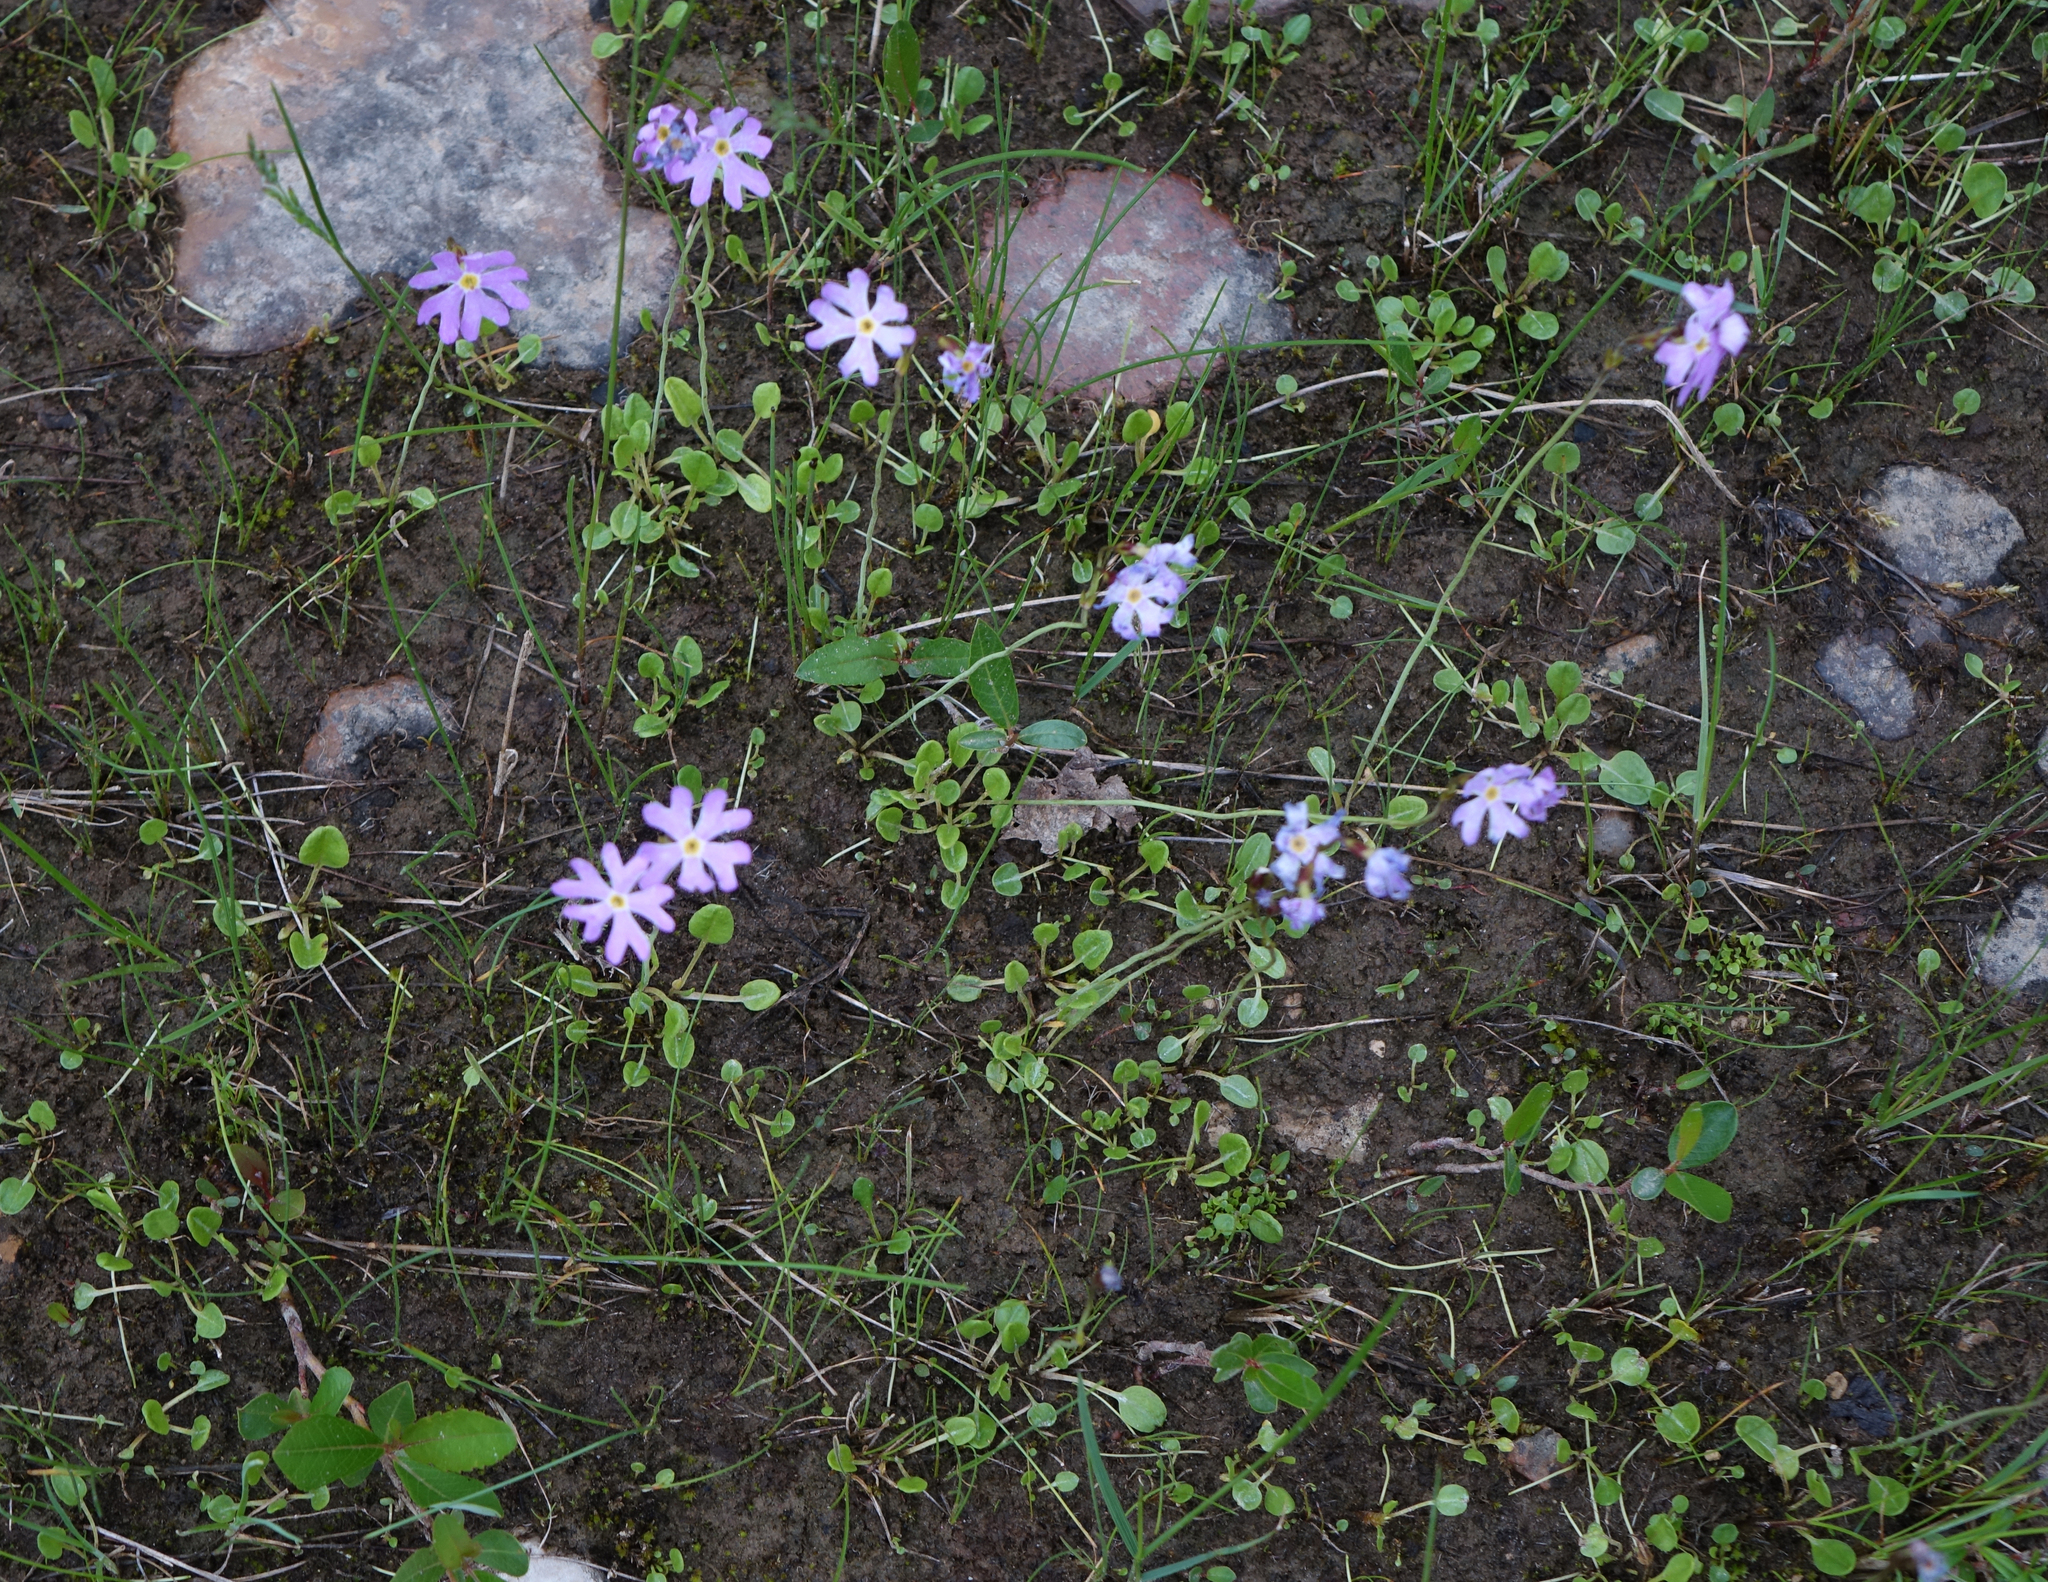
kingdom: Plantae
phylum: Tracheophyta
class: Magnoliopsida
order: Ericales
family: Primulaceae
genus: Primula
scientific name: Primula nutans
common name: Siberian primrose
